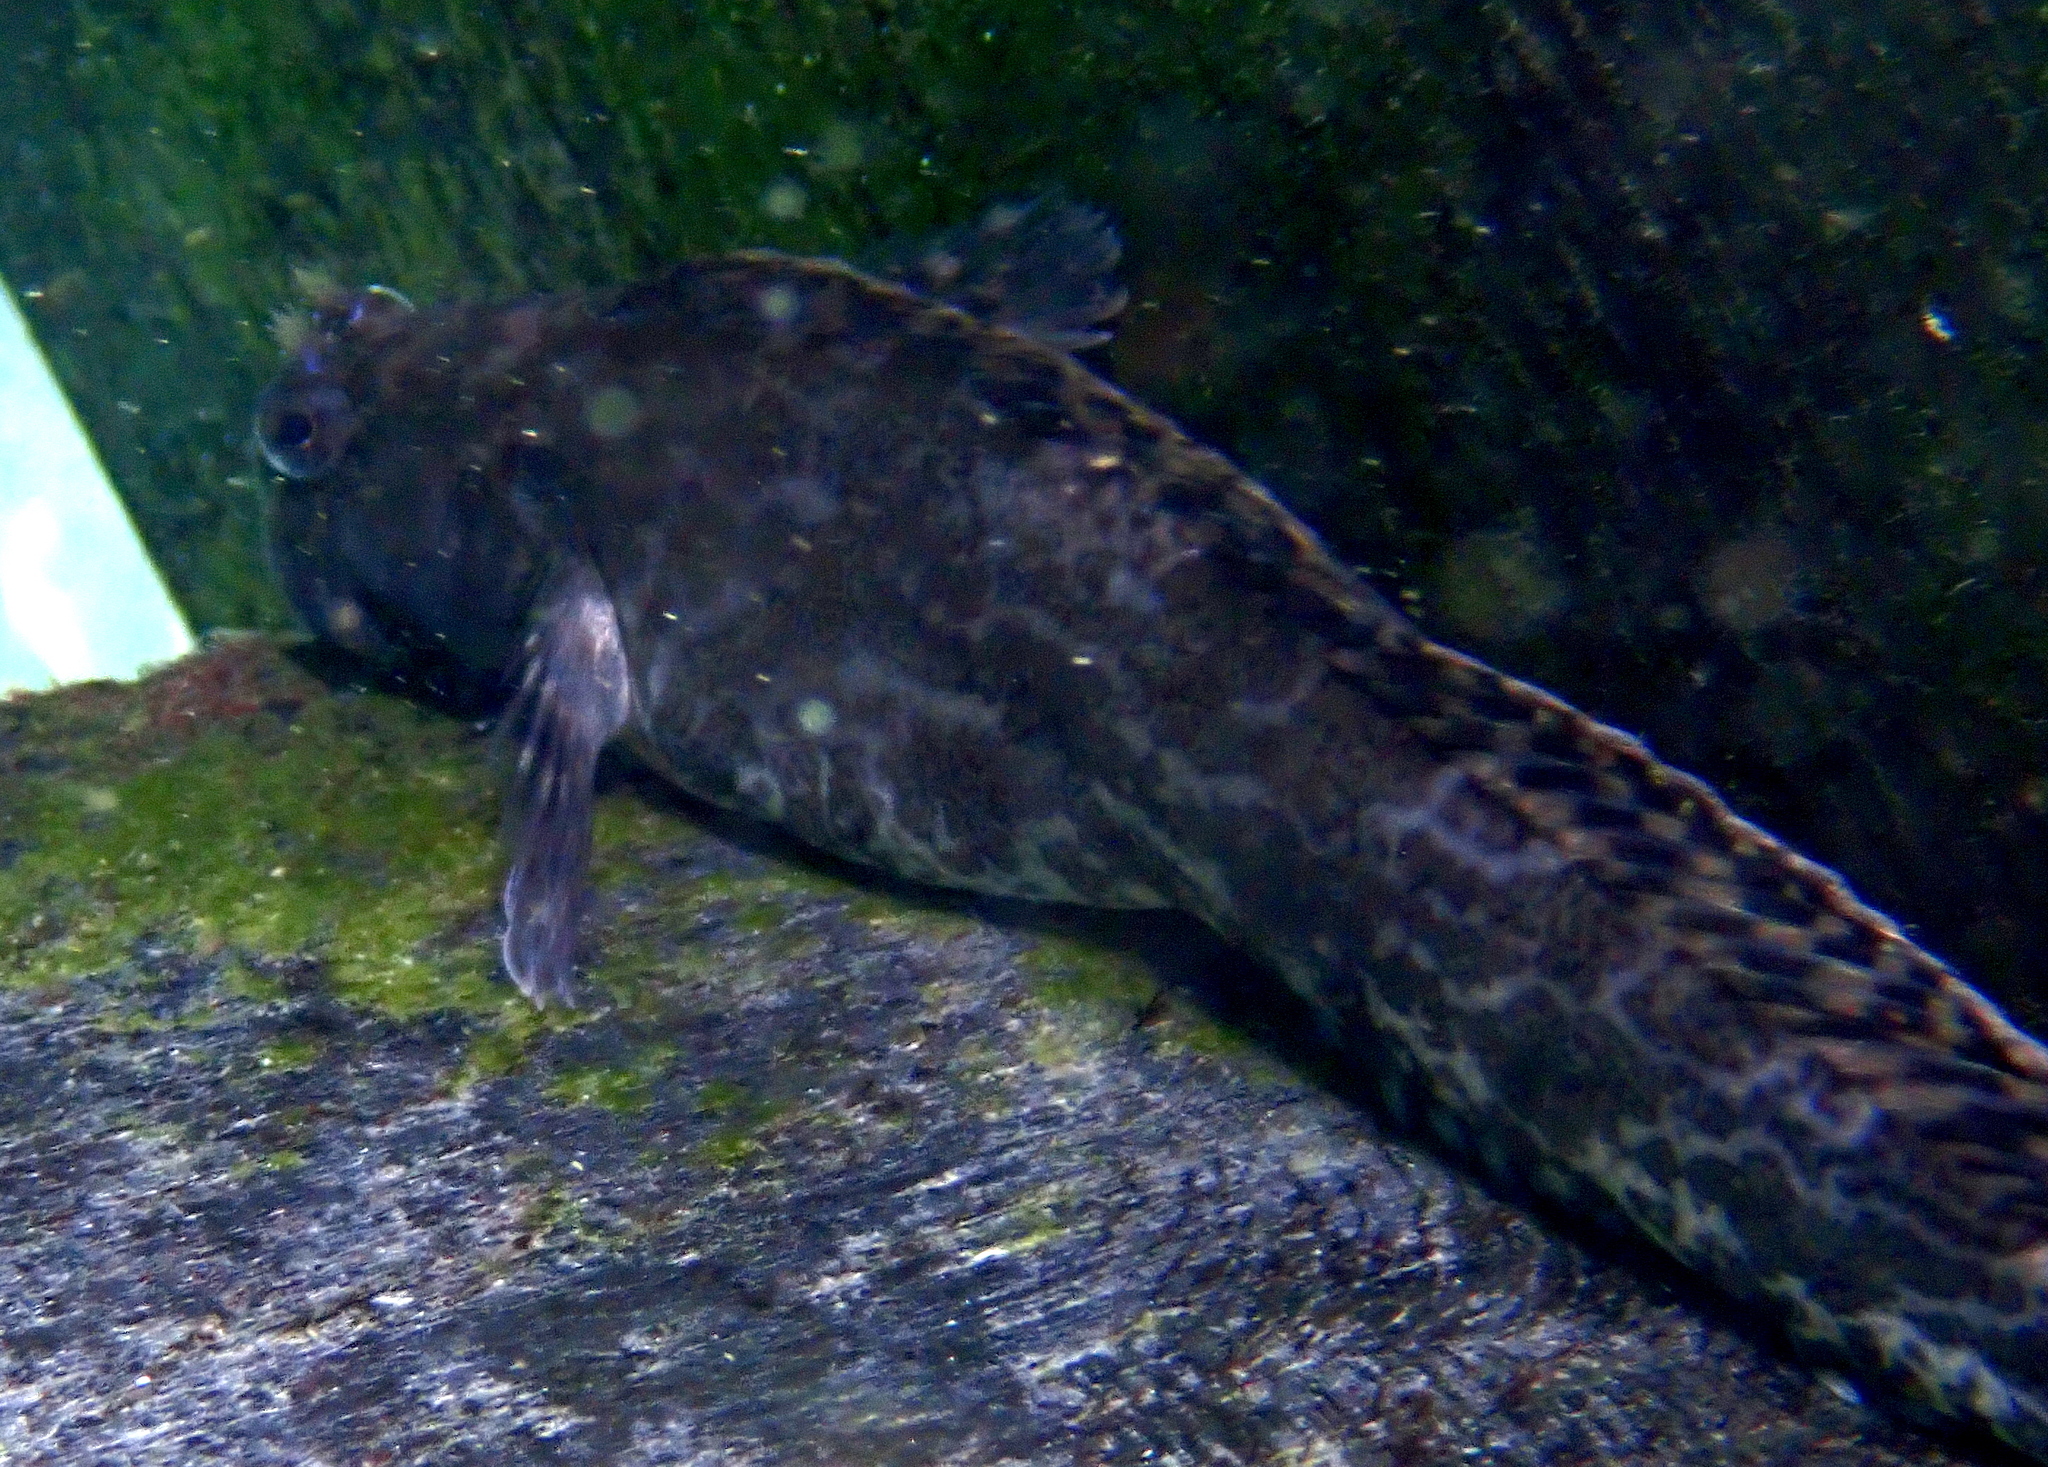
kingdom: Animalia
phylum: Chordata
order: Perciformes
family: Blenniidae
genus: Paralticus
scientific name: Paralticus amboinensis
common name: Ambon rockskipper
